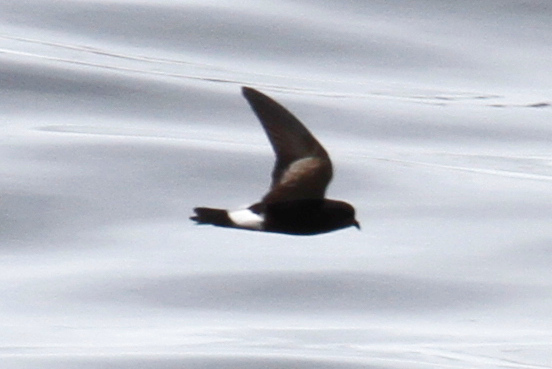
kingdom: Animalia
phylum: Chordata
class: Aves
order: Procellariiformes
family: Hydrobatidae
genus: Oceanites
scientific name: Oceanites oceanicus
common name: Wilson's storm petrel
